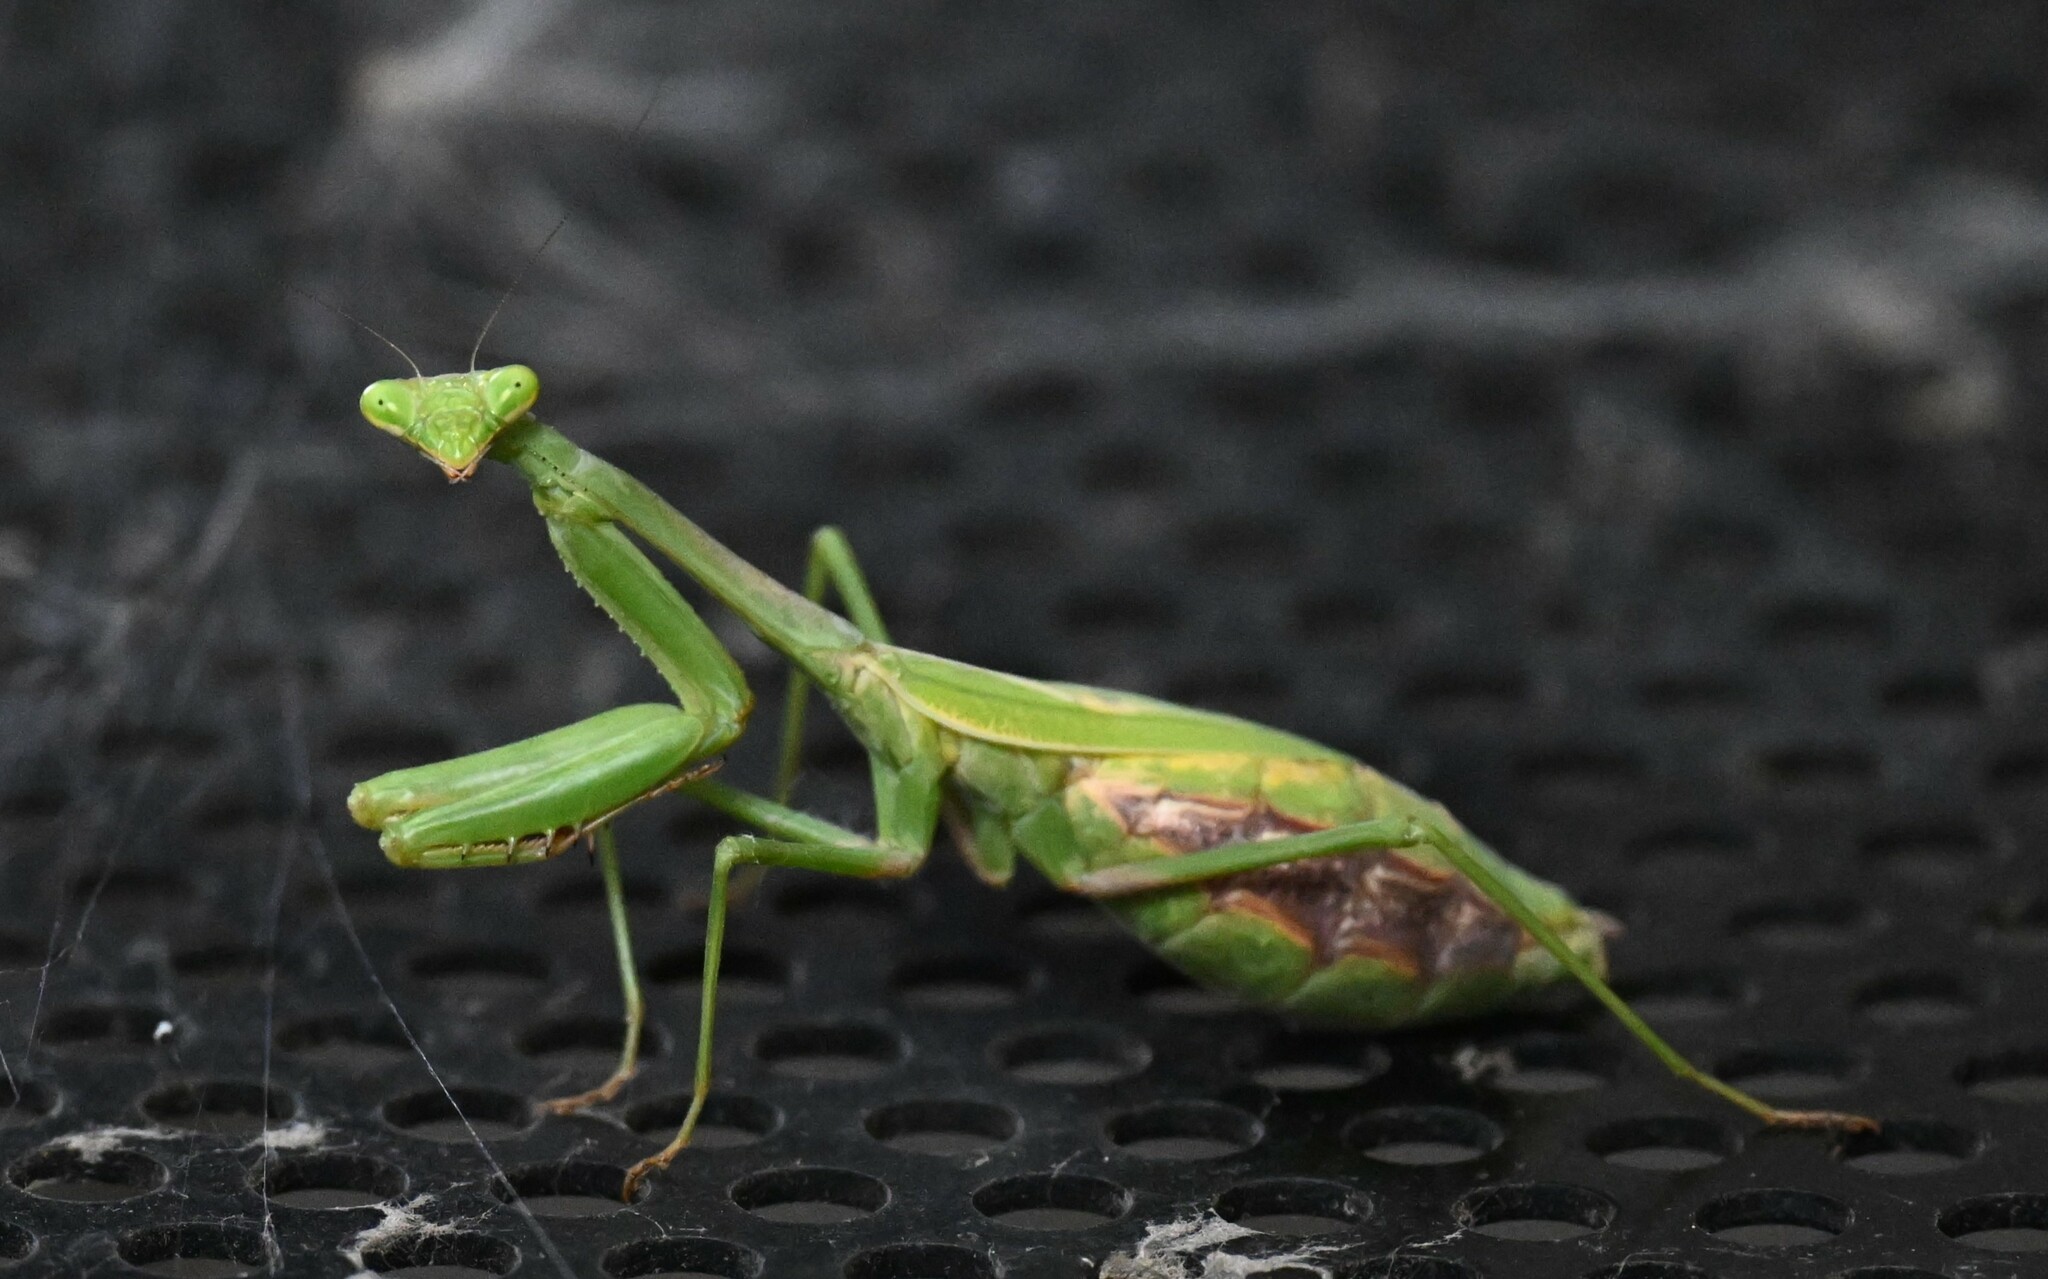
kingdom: Animalia
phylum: Arthropoda
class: Insecta
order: Mantodea
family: Mantidae
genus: Stagmomantis
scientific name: Stagmomantis carolina
